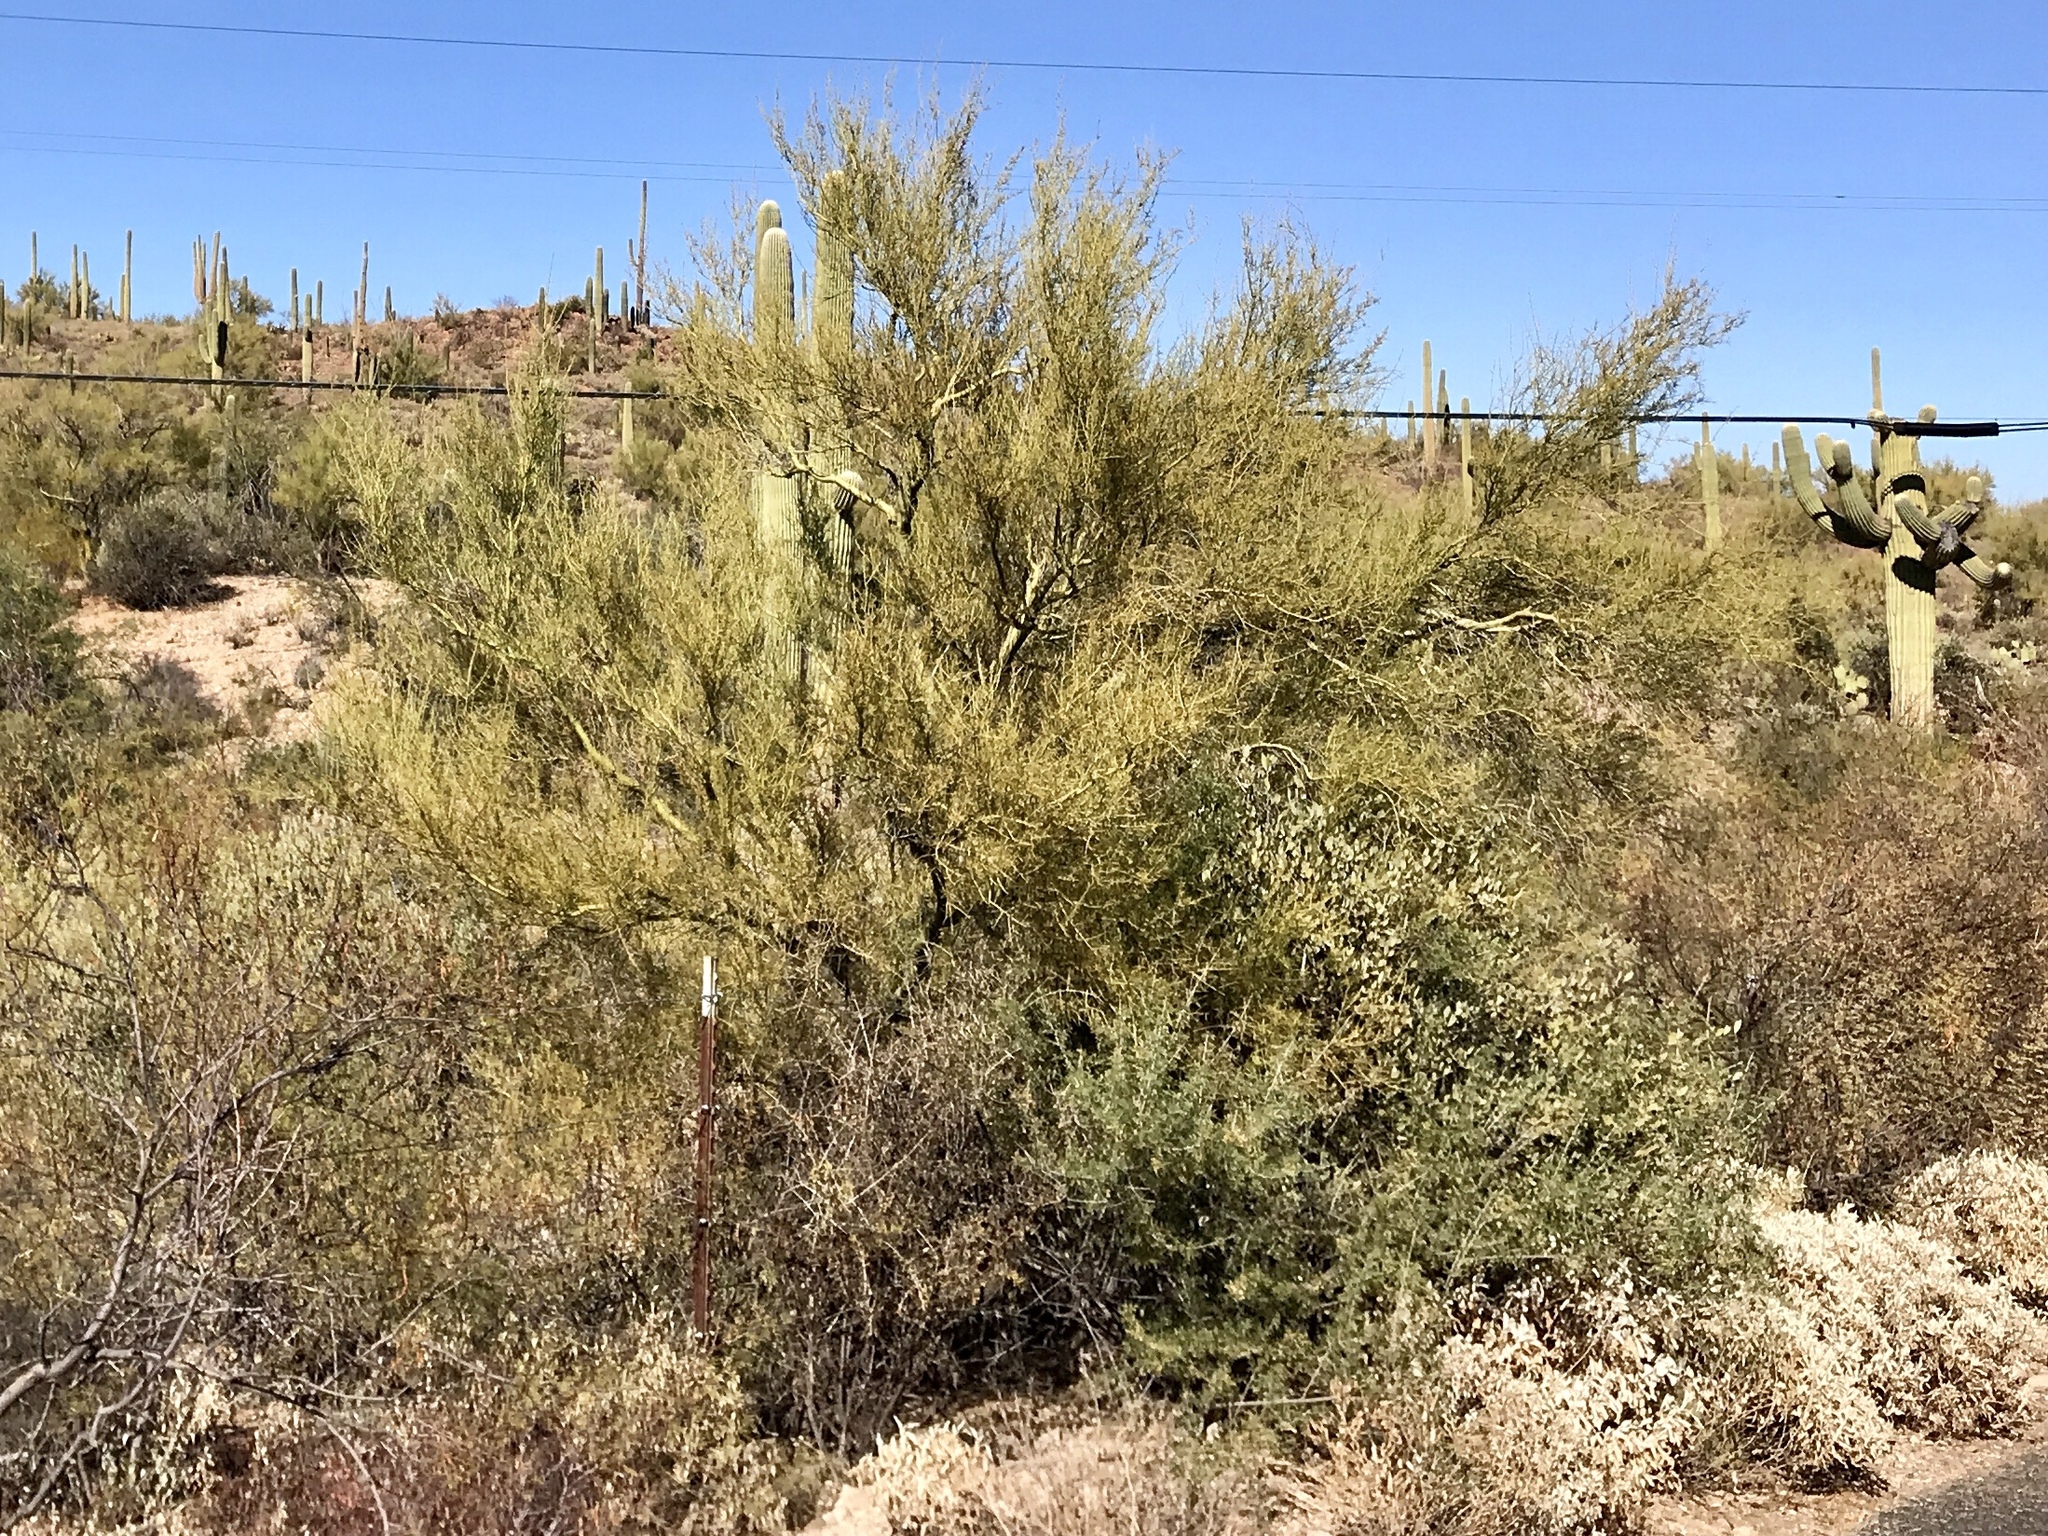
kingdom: Plantae
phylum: Tracheophyta
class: Magnoliopsida
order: Fabales
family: Fabaceae
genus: Parkinsonia
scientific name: Parkinsonia microphylla
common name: Yellow paloverde
